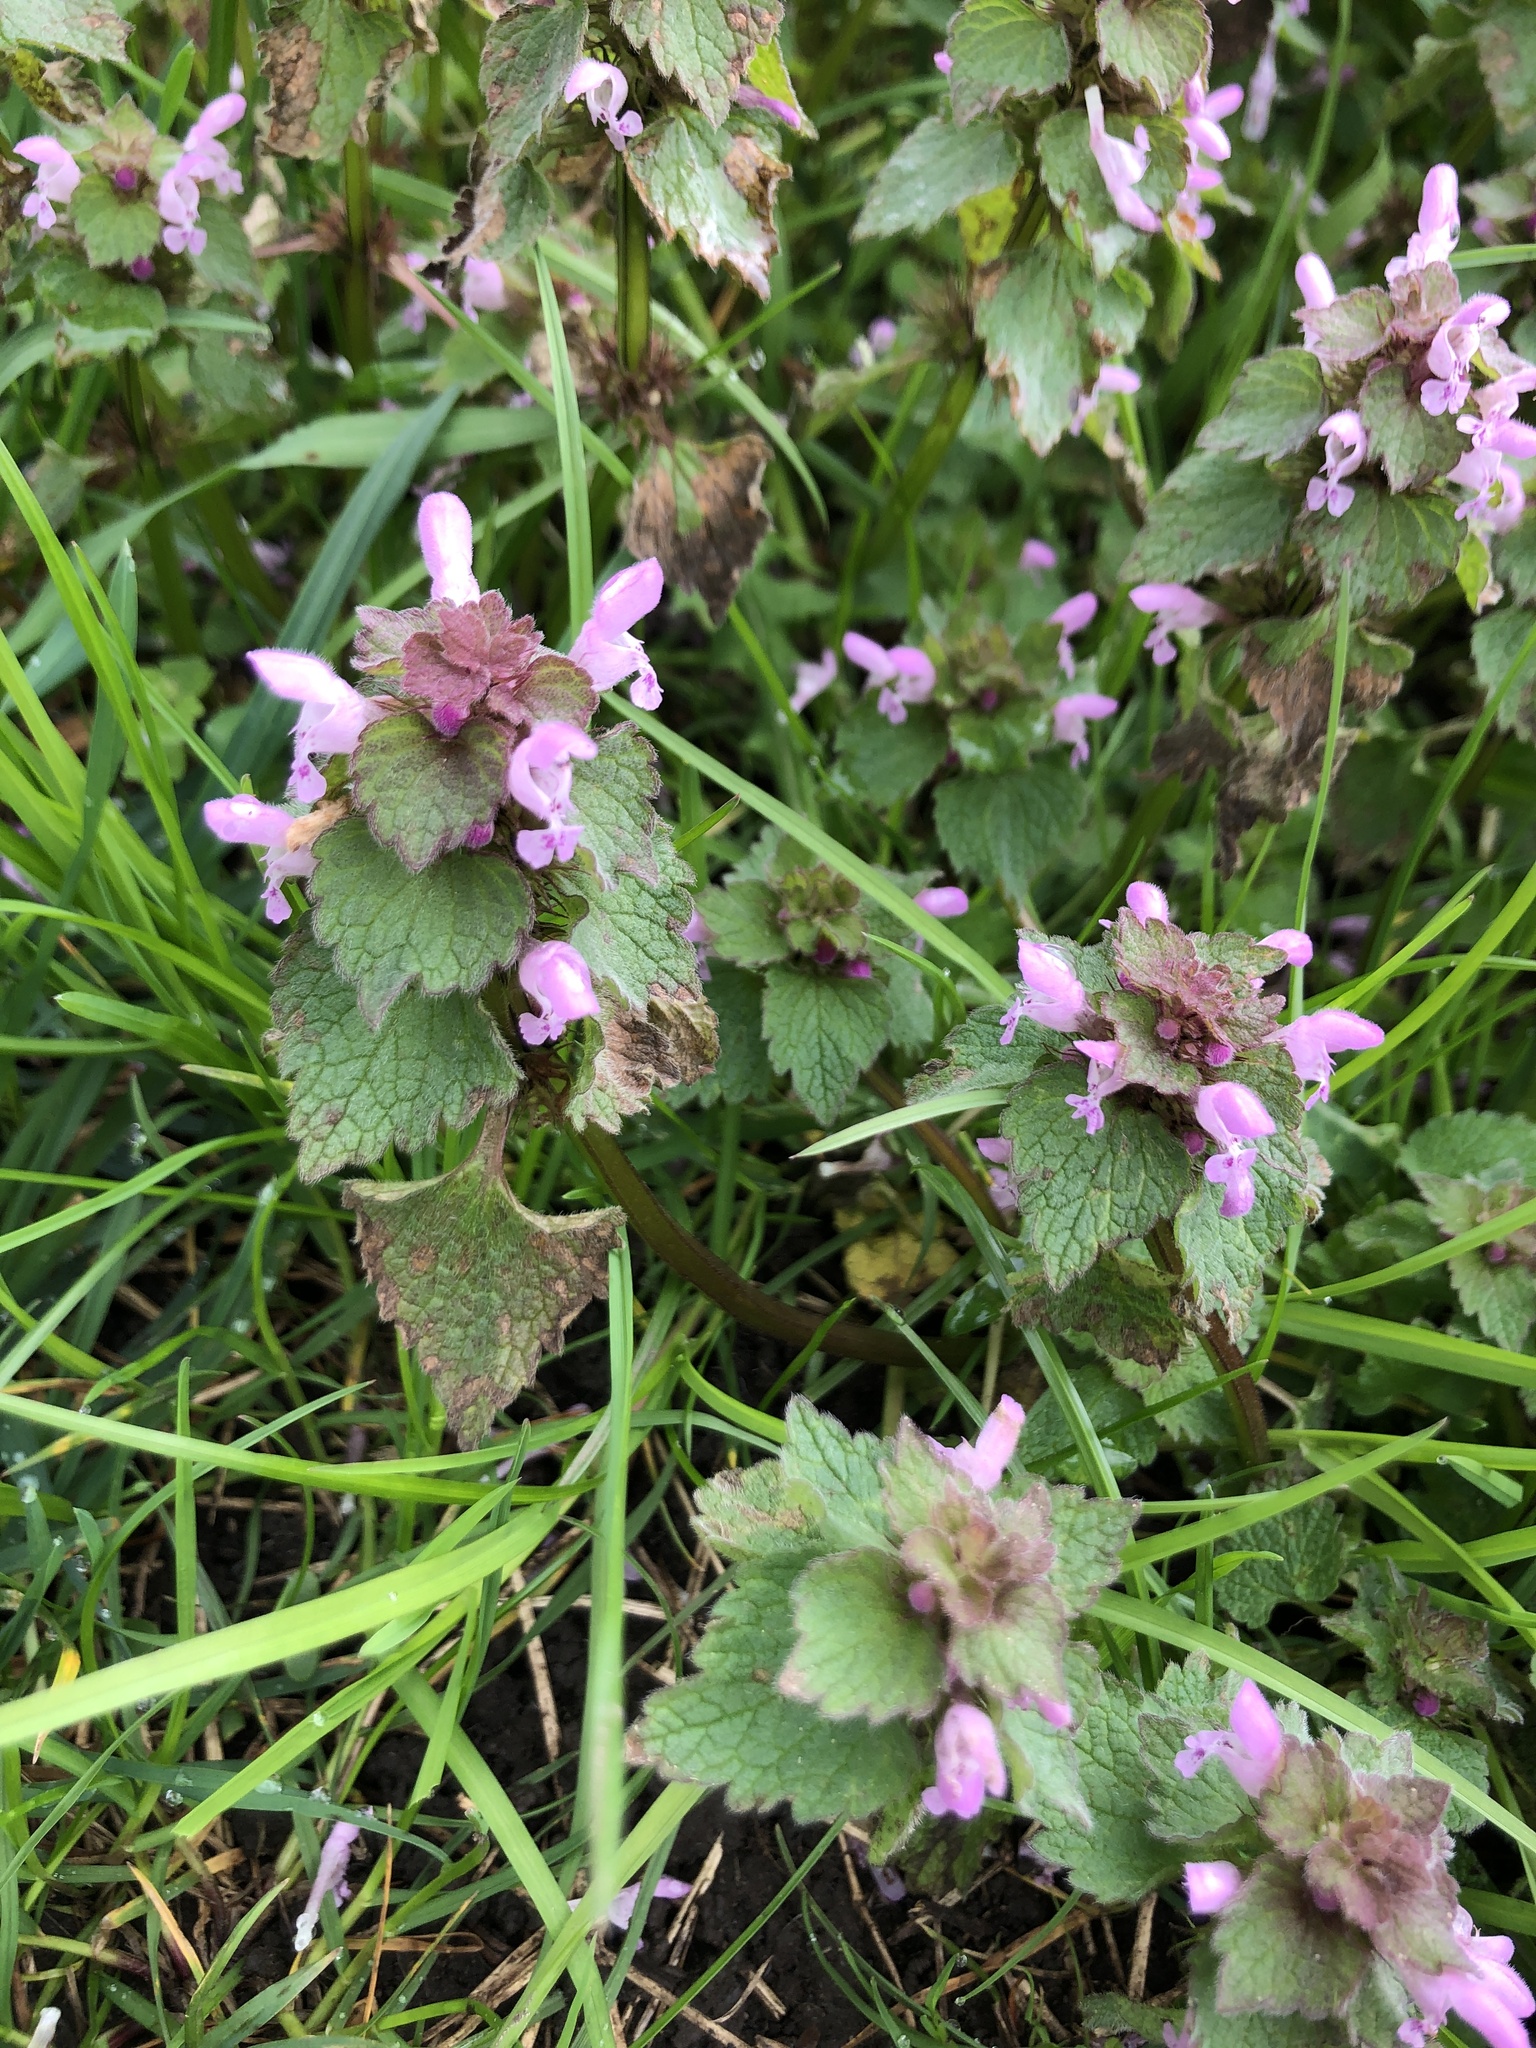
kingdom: Plantae
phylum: Tracheophyta
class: Magnoliopsida
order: Lamiales
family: Lamiaceae
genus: Lamium
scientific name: Lamium purpureum
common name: Red dead-nettle
